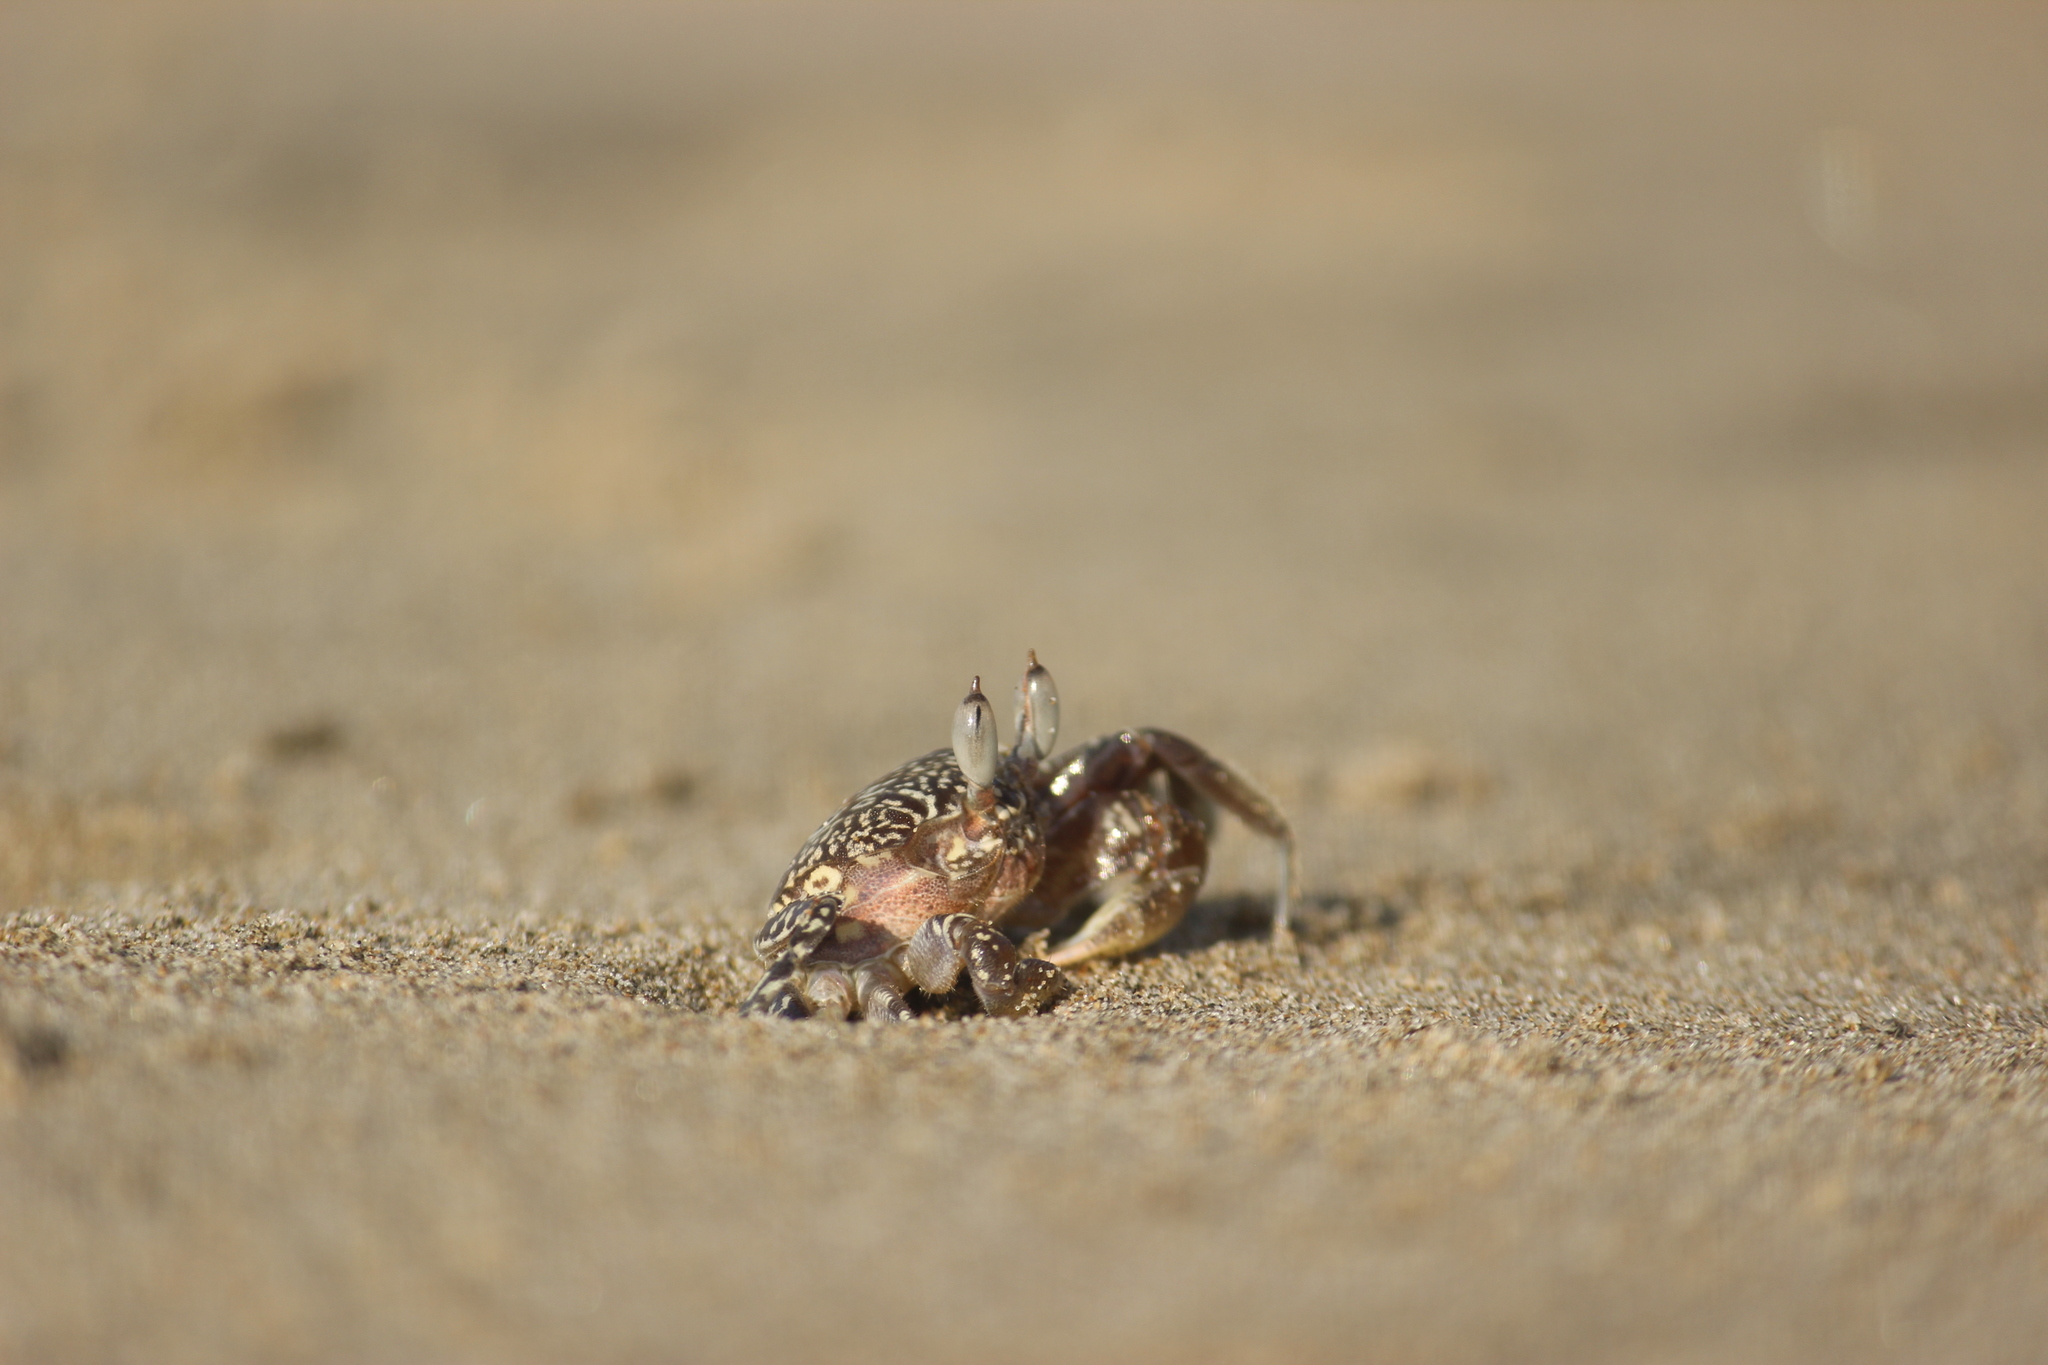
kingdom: Animalia
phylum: Arthropoda
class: Malacostraca
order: Decapoda
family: Ocypodidae
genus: Ocypode
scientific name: Ocypode gaudichaudii
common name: Pacific ghost crab
